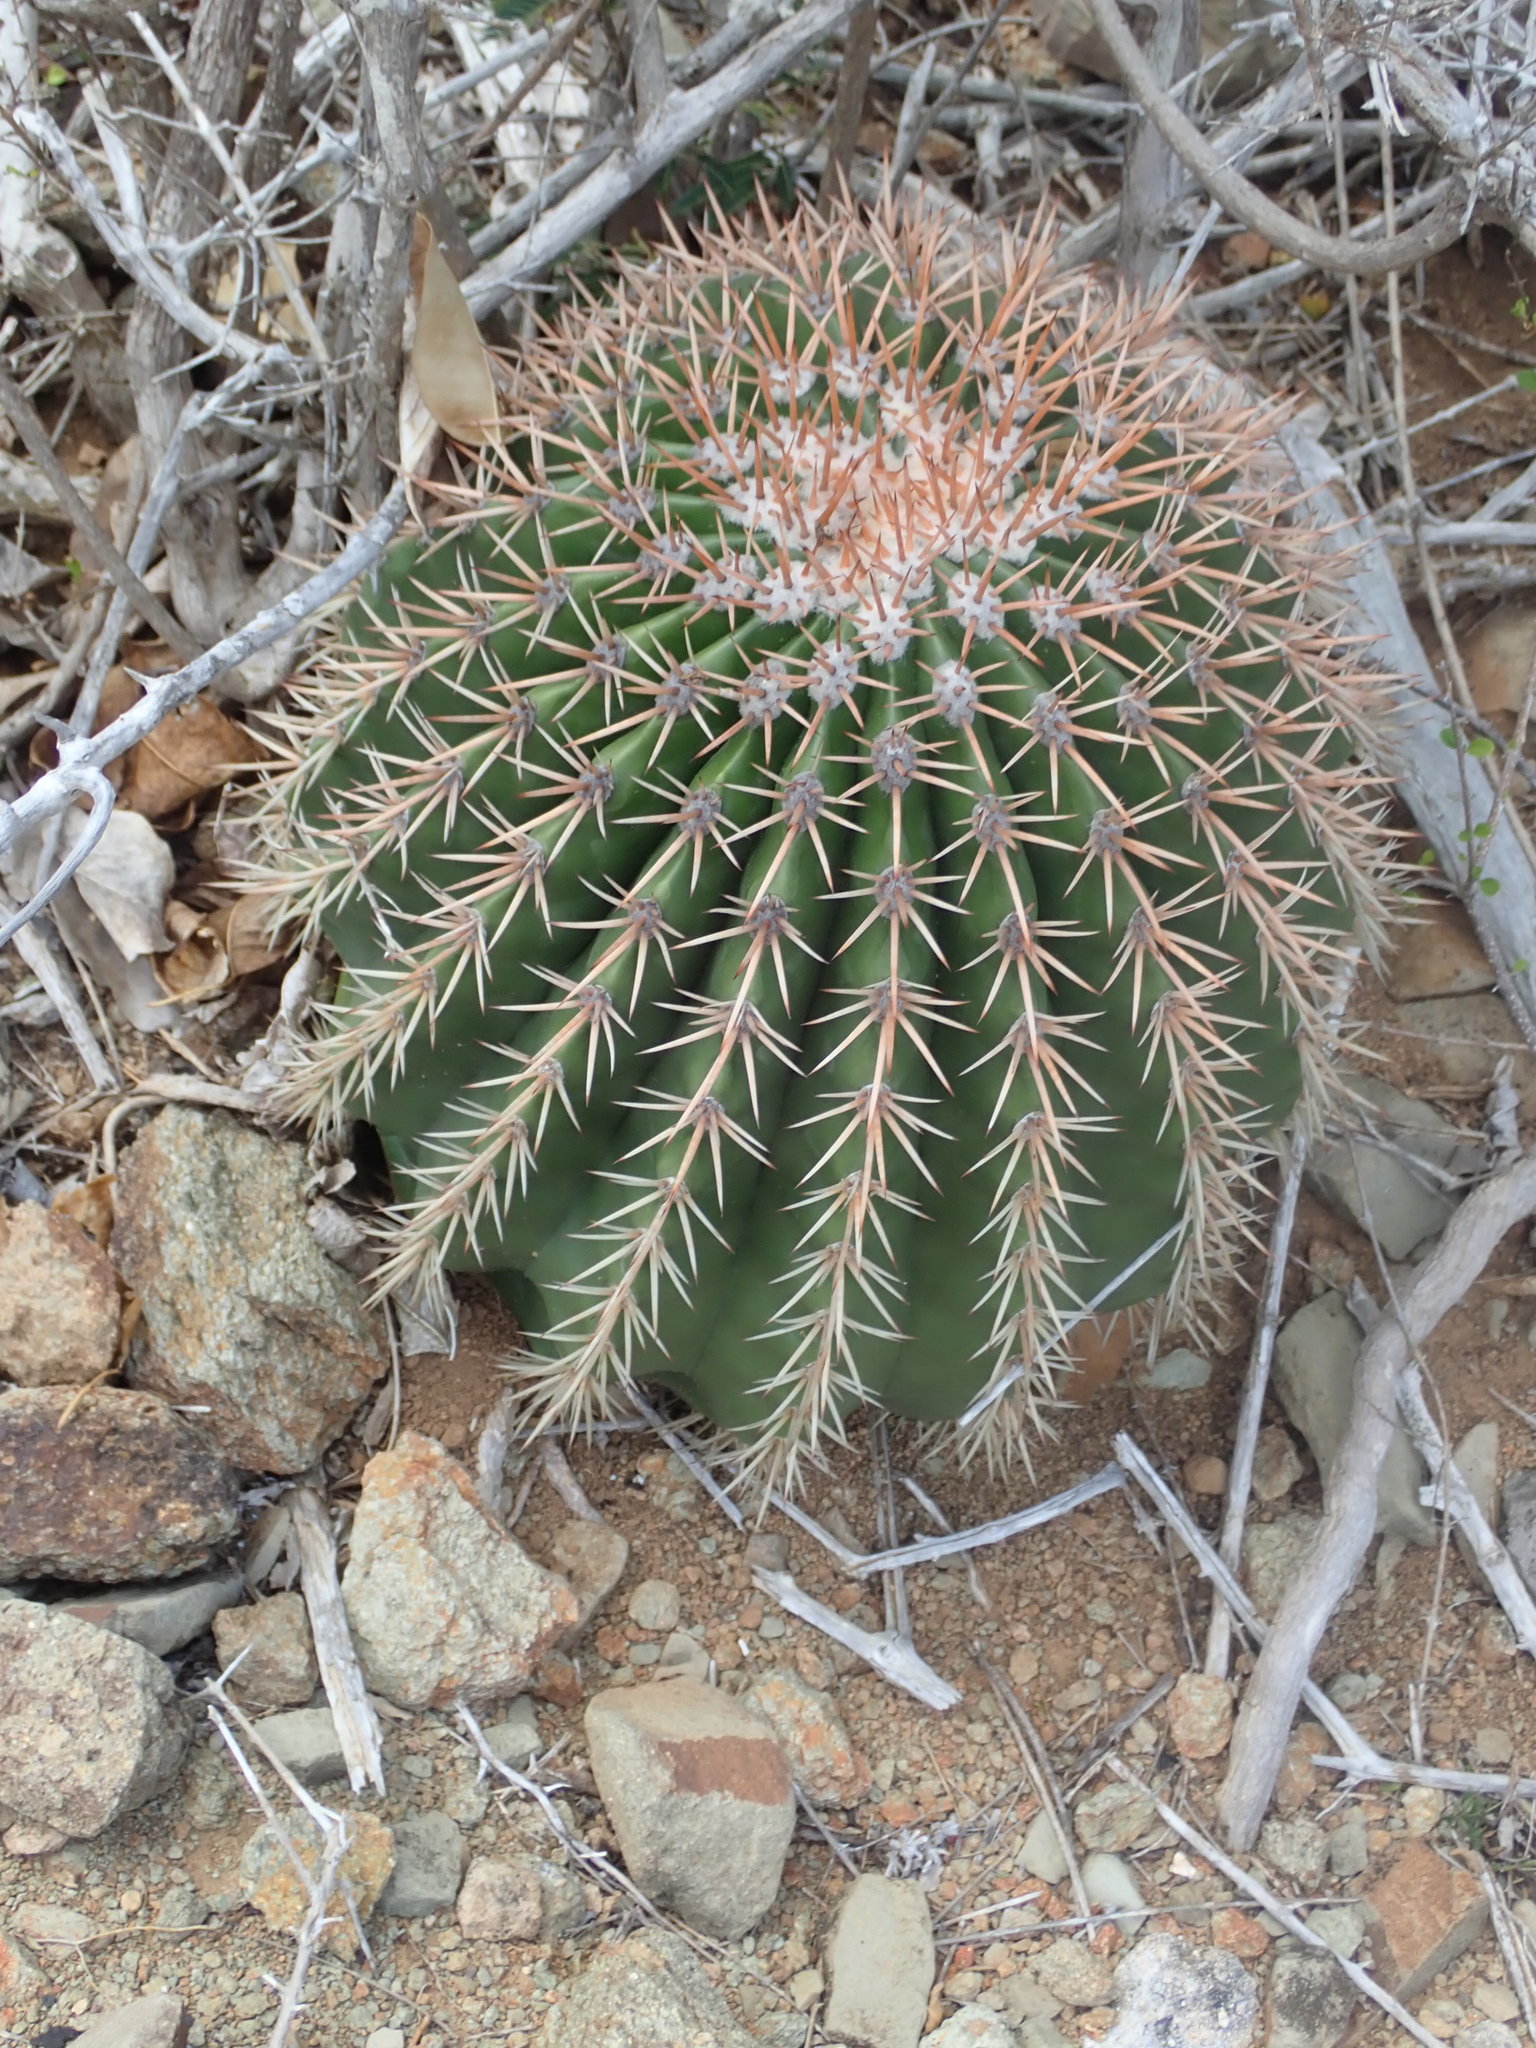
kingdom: Plantae
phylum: Tracheophyta
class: Magnoliopsida
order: Caryophyllales
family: Cactaceae
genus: Melocactus
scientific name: Melocactus intortus
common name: Barrel cactus
